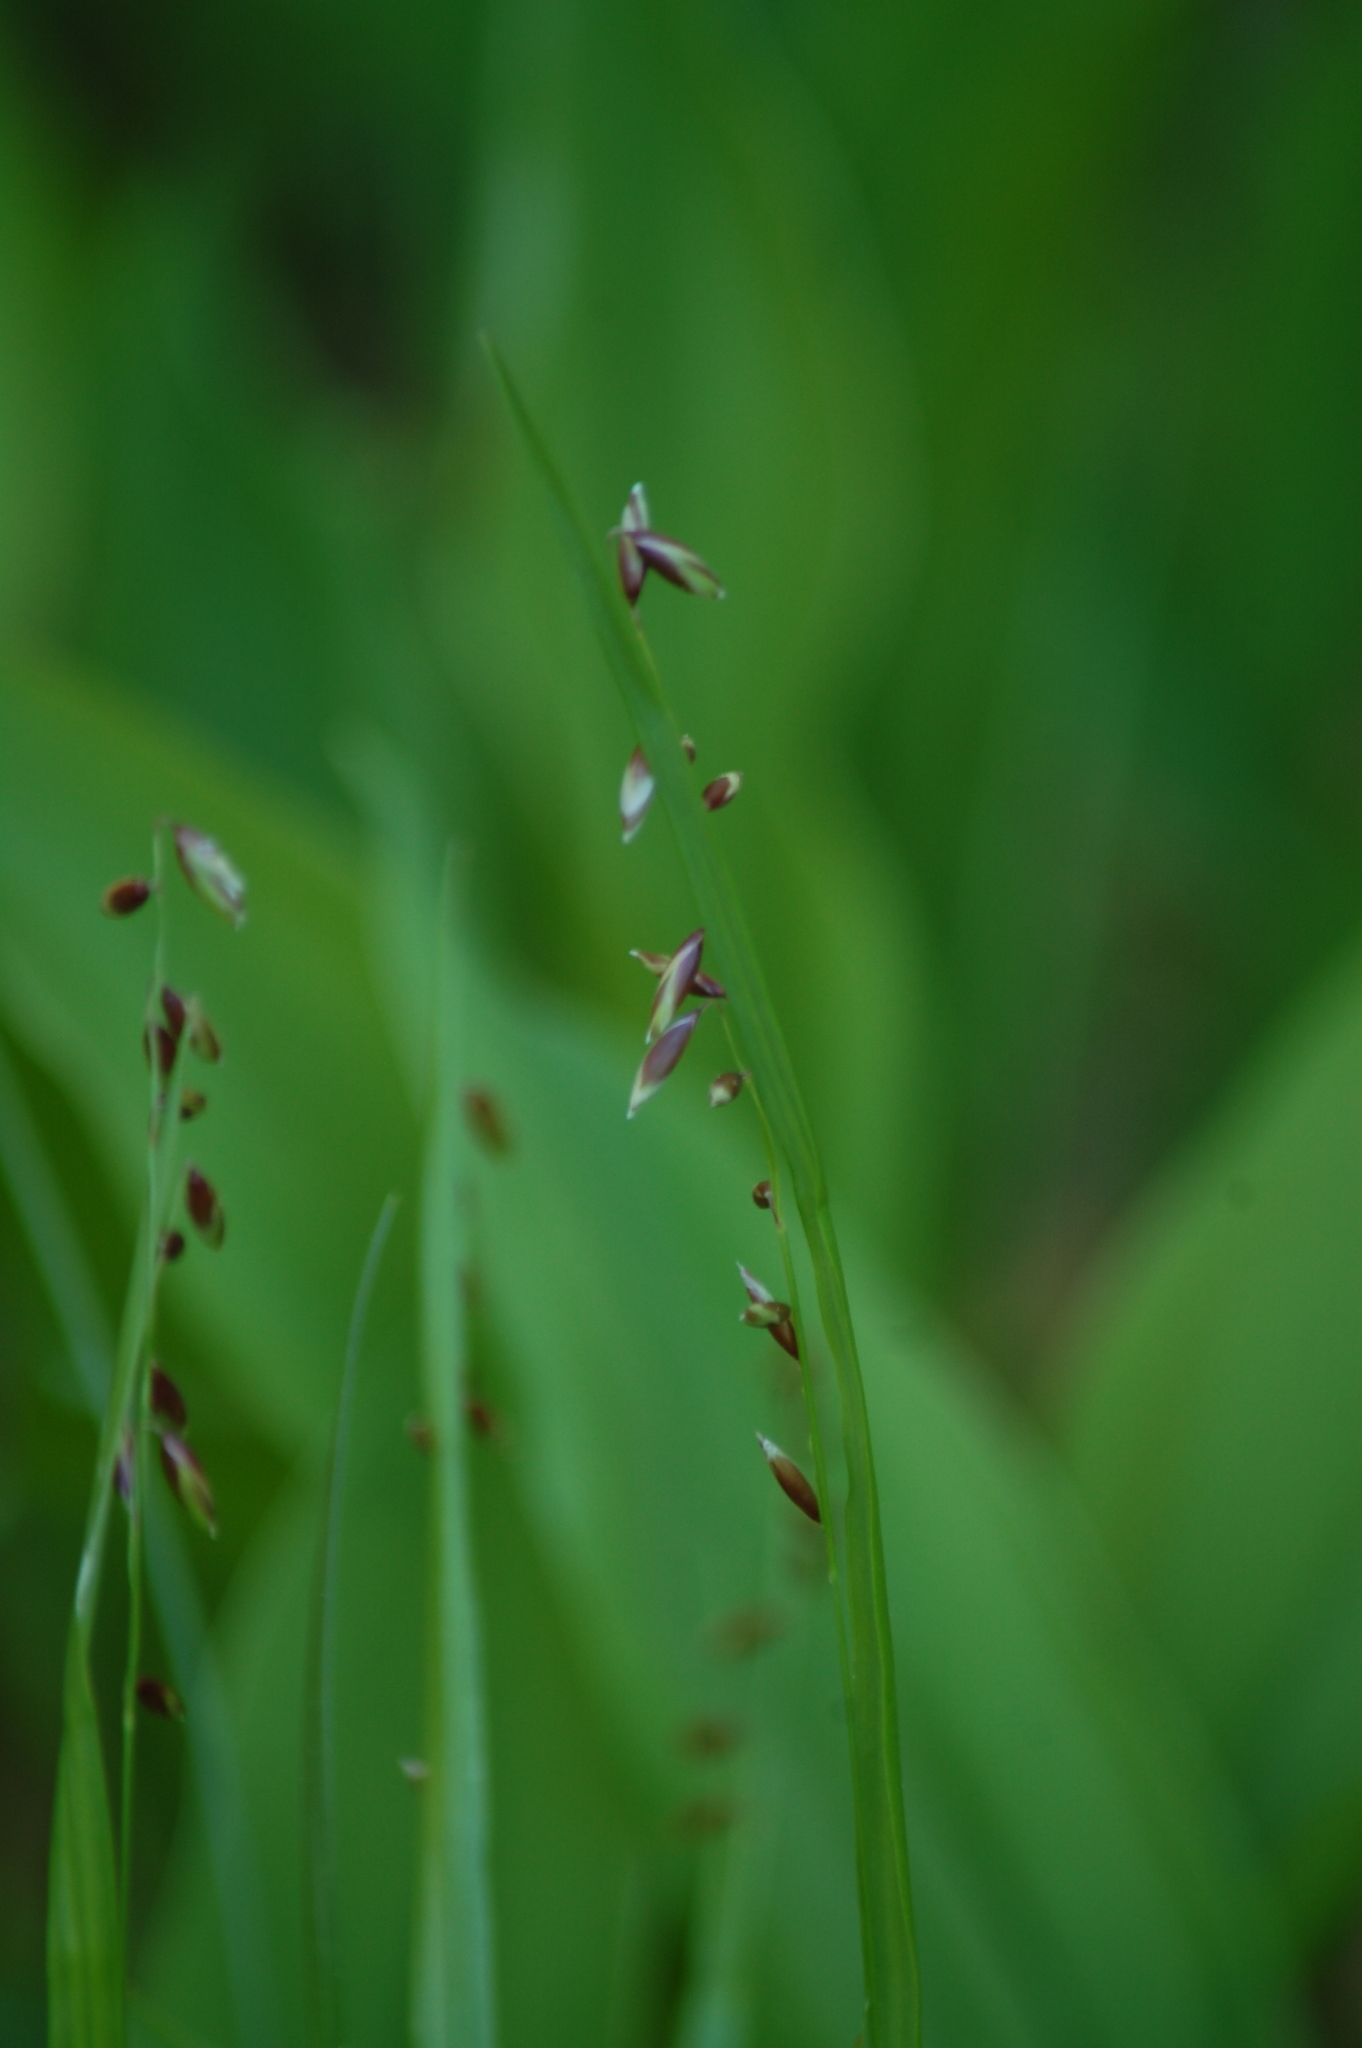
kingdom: Plantae
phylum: Tracheophyta
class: Liliopsida
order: Poales
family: Poaceae
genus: Melica
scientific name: Melica nutans
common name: Mountain melick
